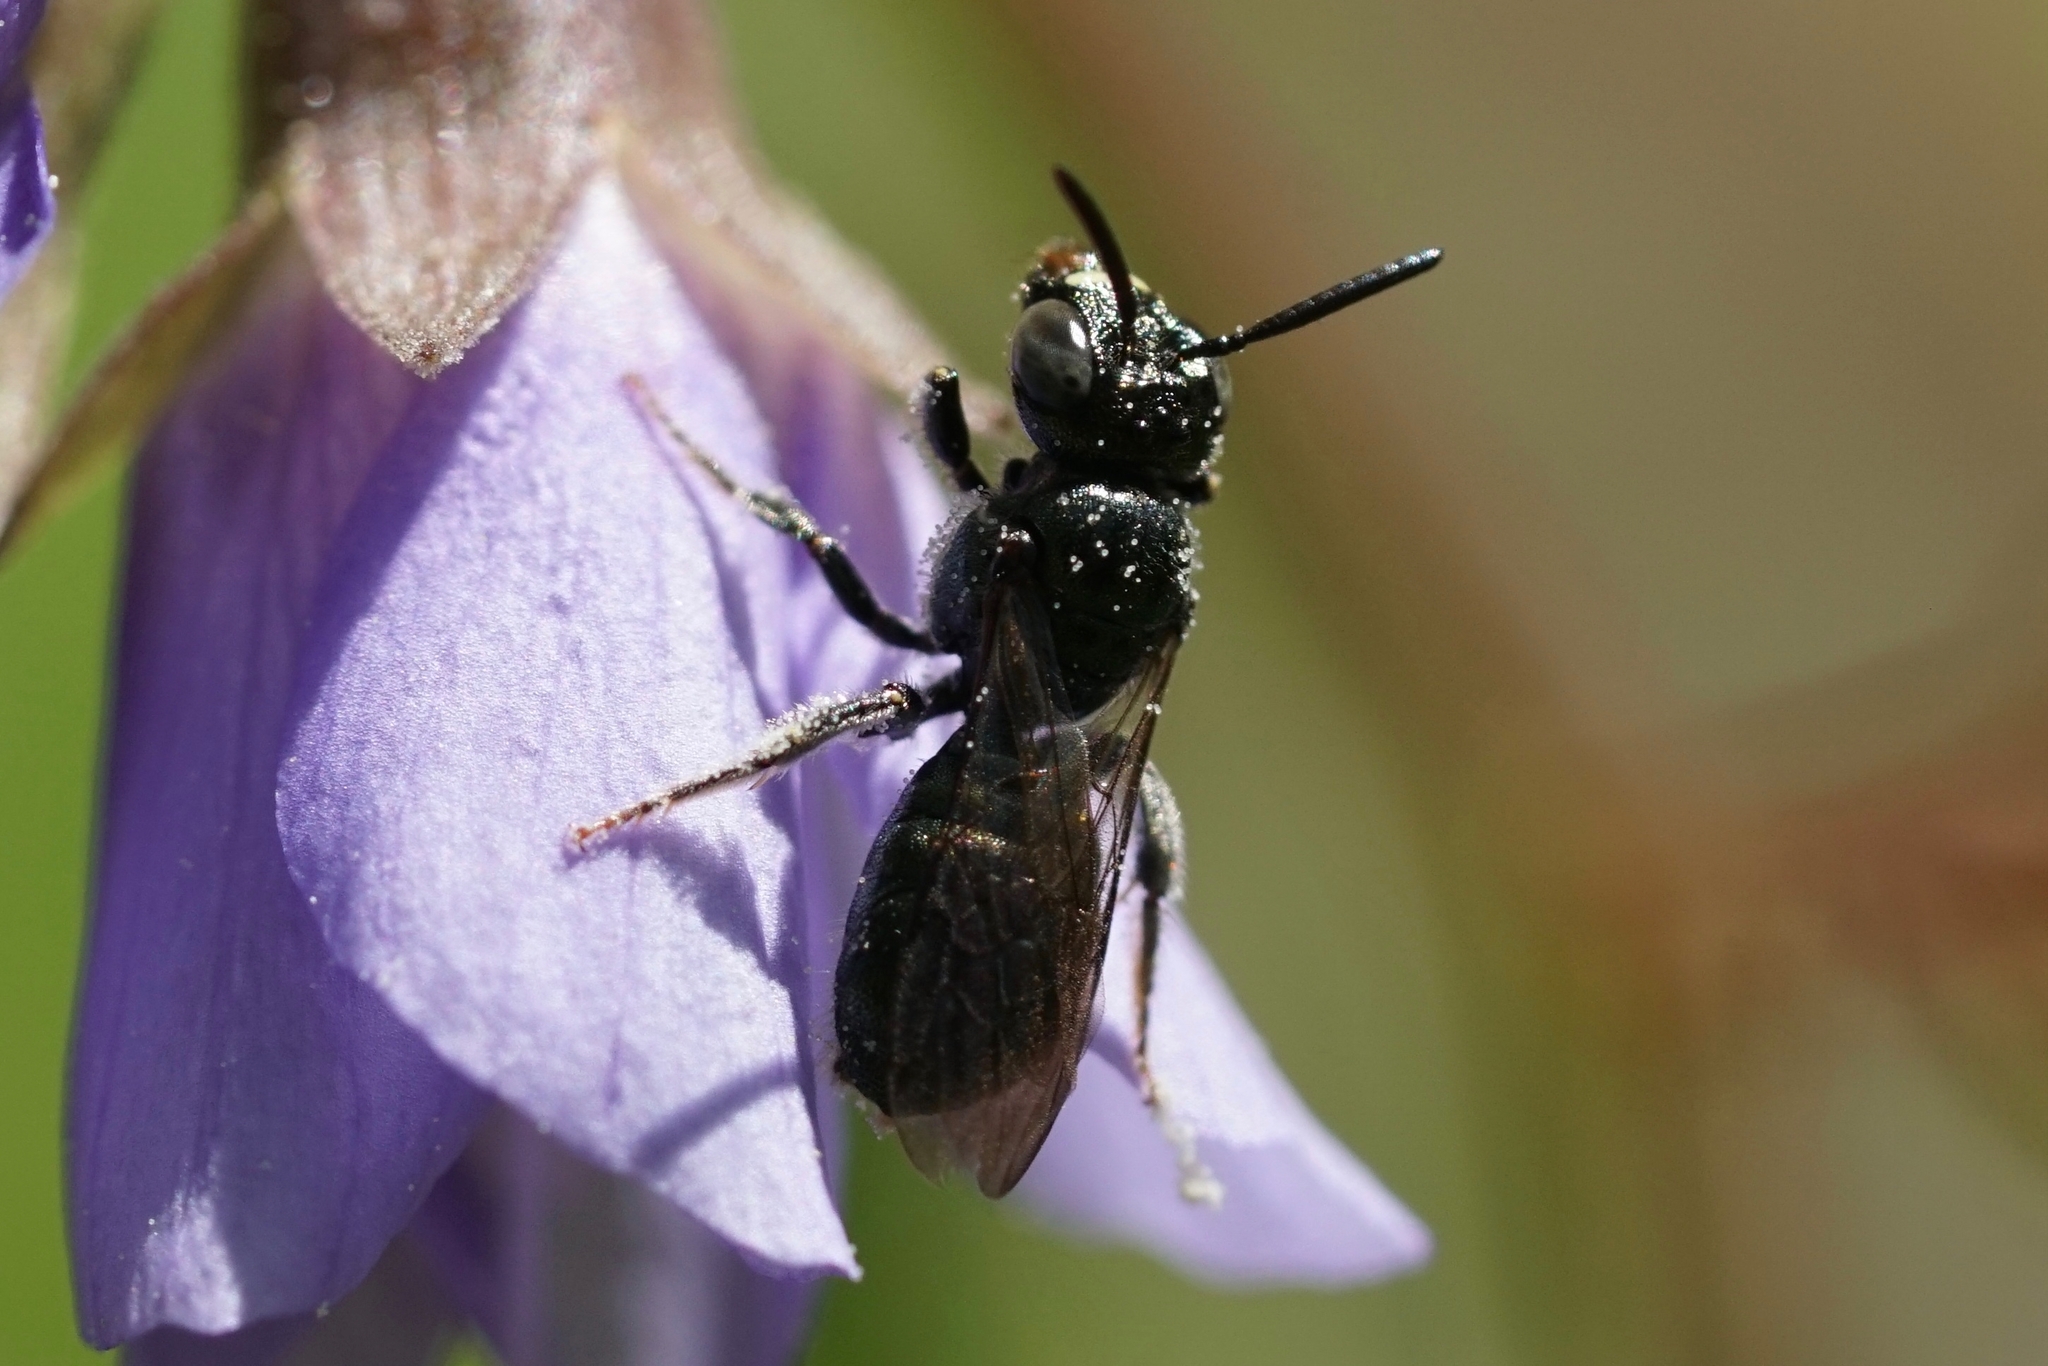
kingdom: Animalia
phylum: Arthropoda
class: Insecta
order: Hymenoptera
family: Apidae
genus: Zadontomerus
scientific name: Zadontomerus
